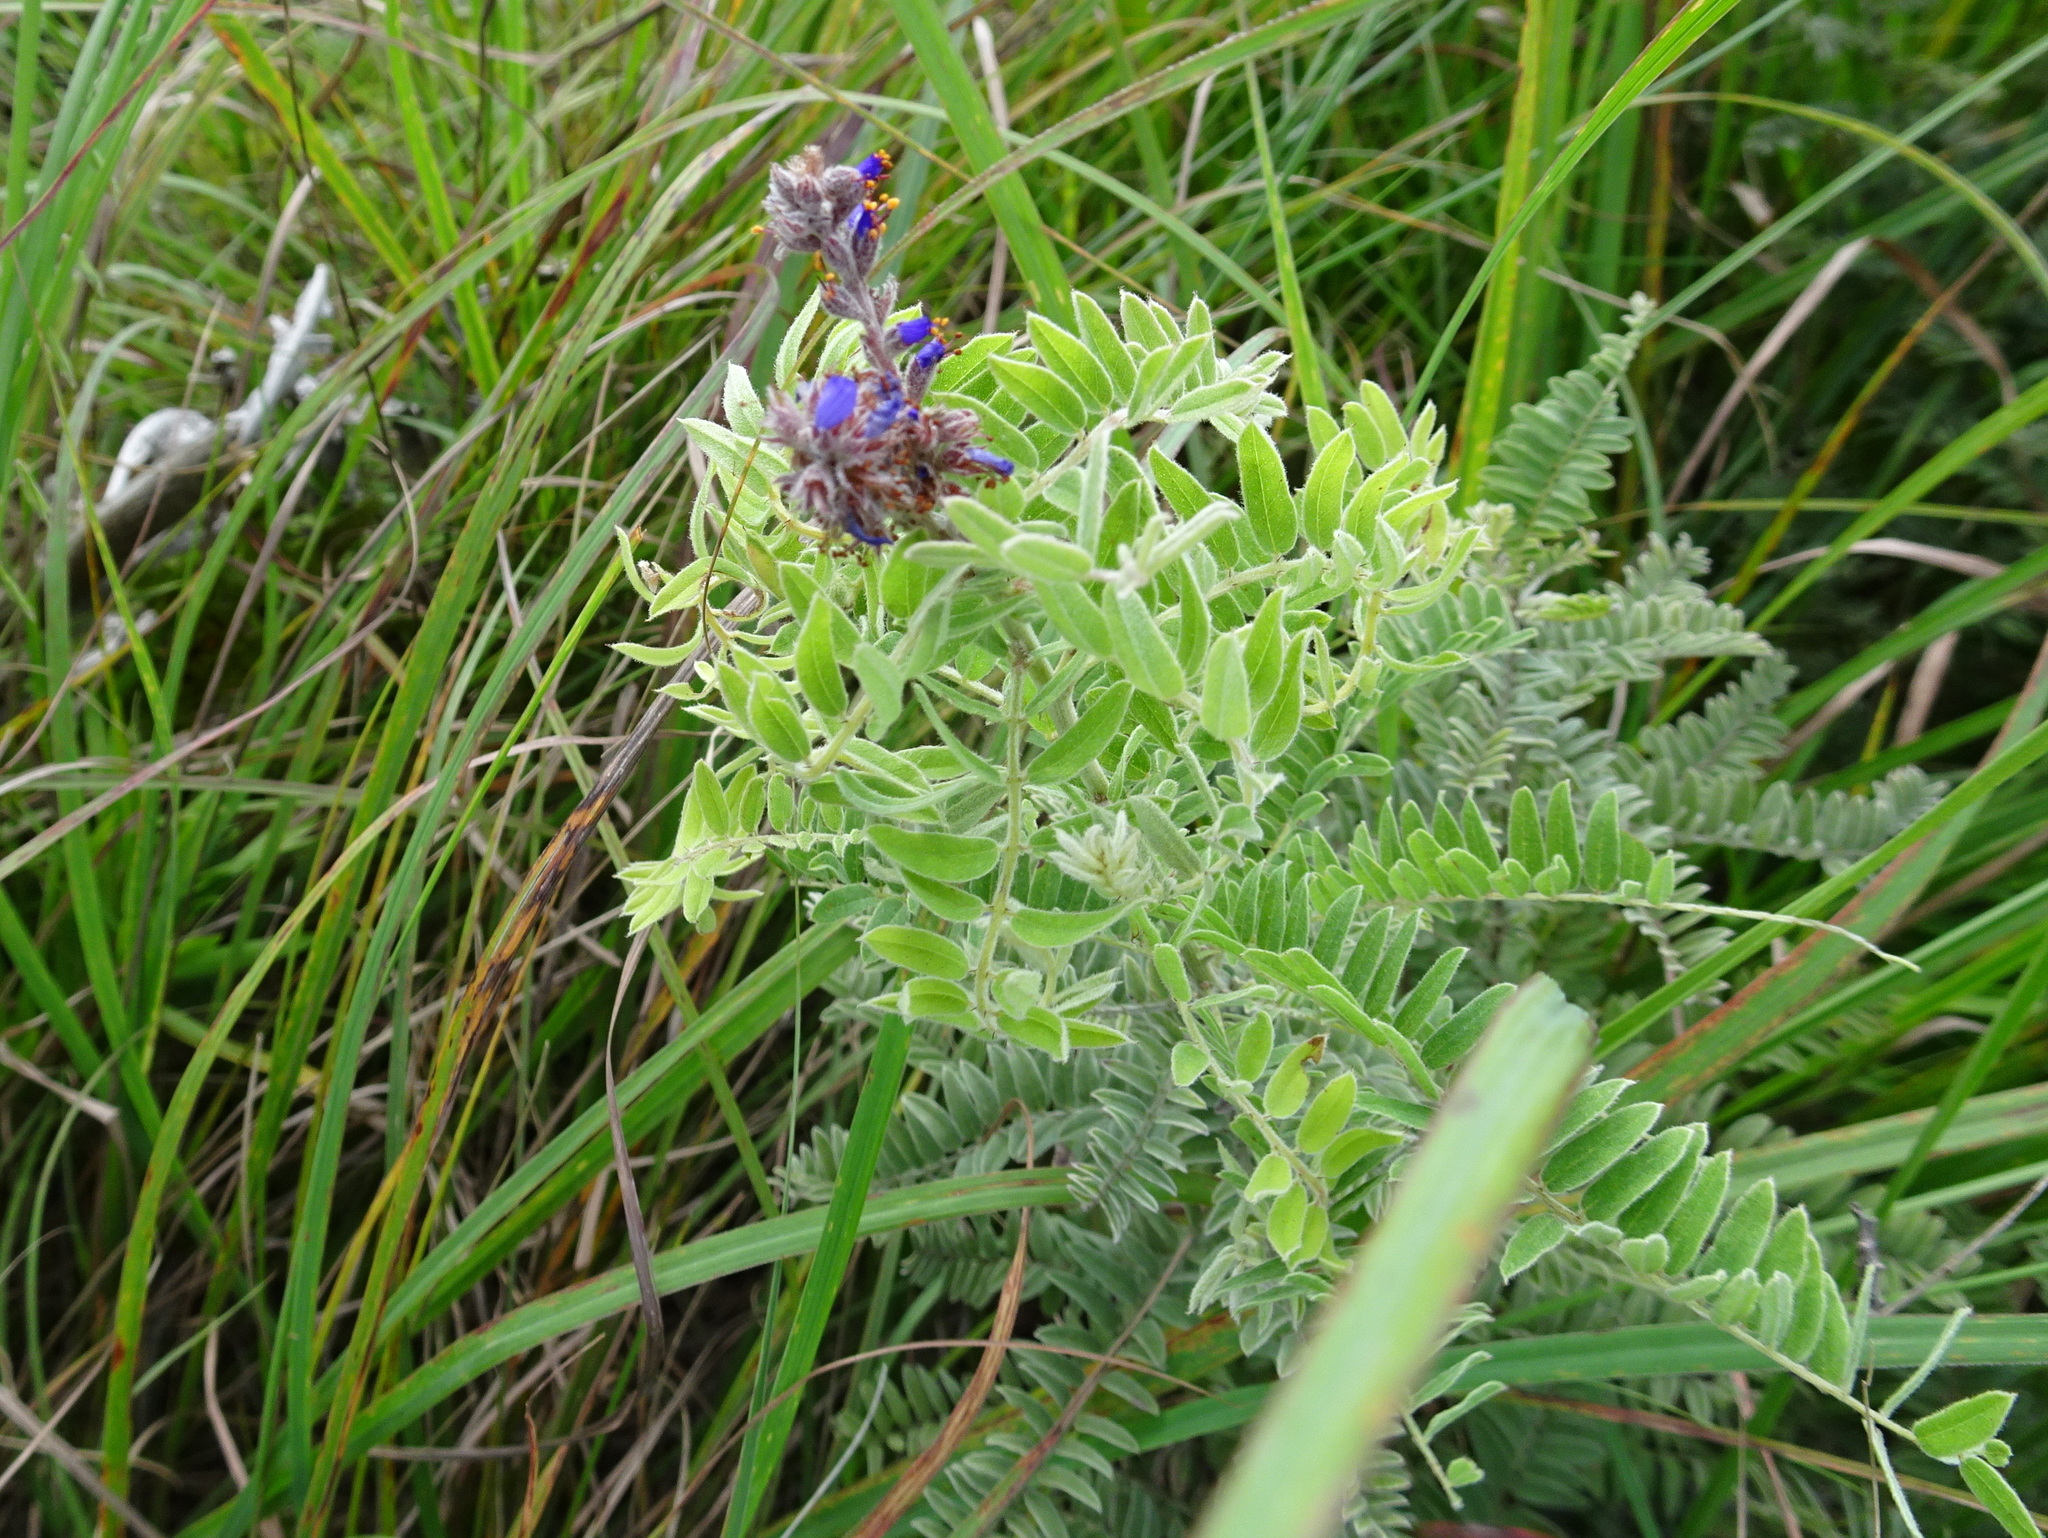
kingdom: Plantae
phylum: Tracheophyta
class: Magnoliopsida
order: Fabales
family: Fabaceae
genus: Amorpha
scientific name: Amorpha canescens
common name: Leadplant
